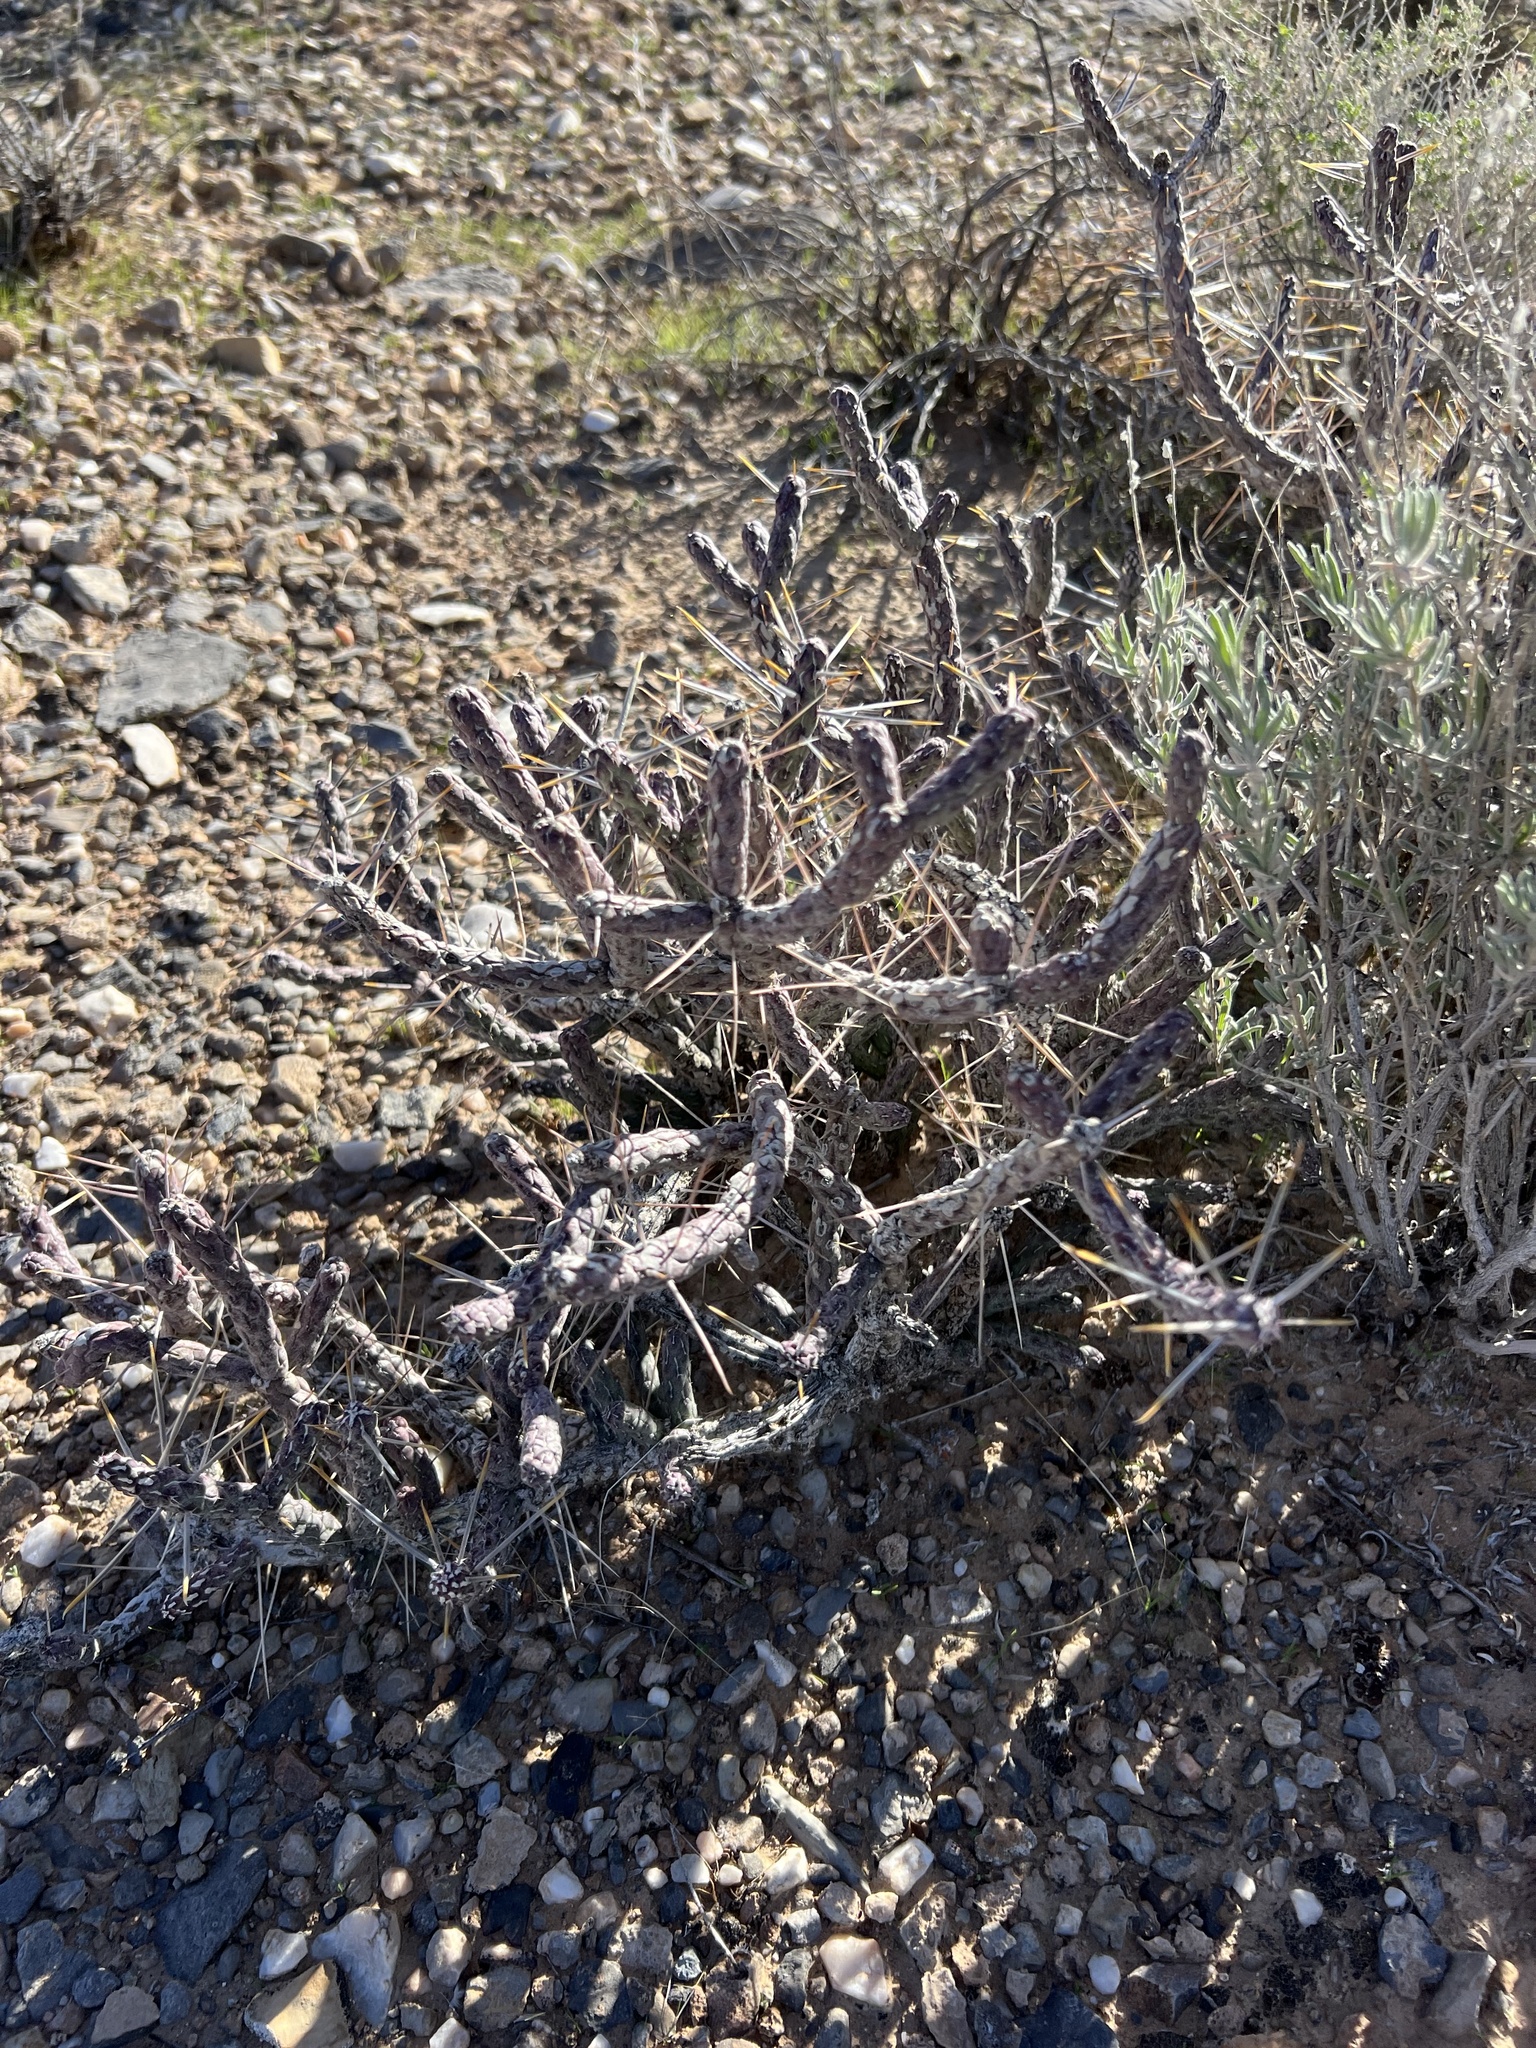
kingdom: Plantae
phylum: Tracheophyta
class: Magnoliopsida
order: Caryophyllales
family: Cactaceae
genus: Cylindropuntia
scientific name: Cylindropuntia ramosissima
